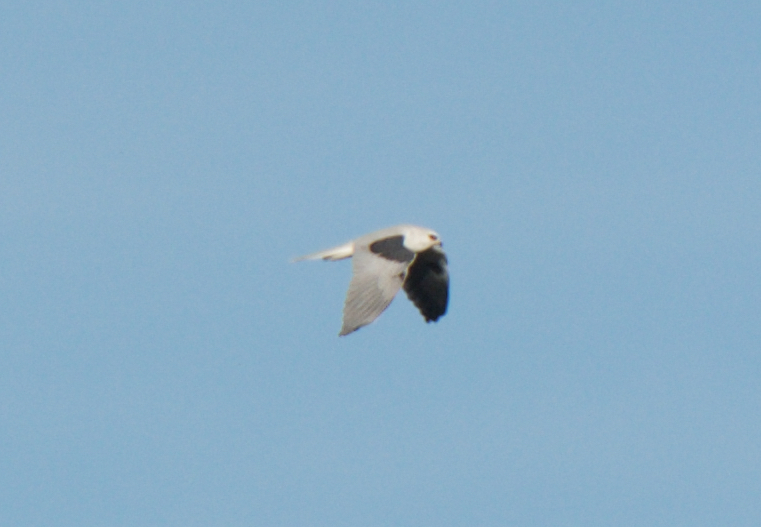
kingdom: Animalia
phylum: Chordata
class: Aves
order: Accipitriformes
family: Accipitridae
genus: Elanus
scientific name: Elanus leucurus
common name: White-tailed kite
